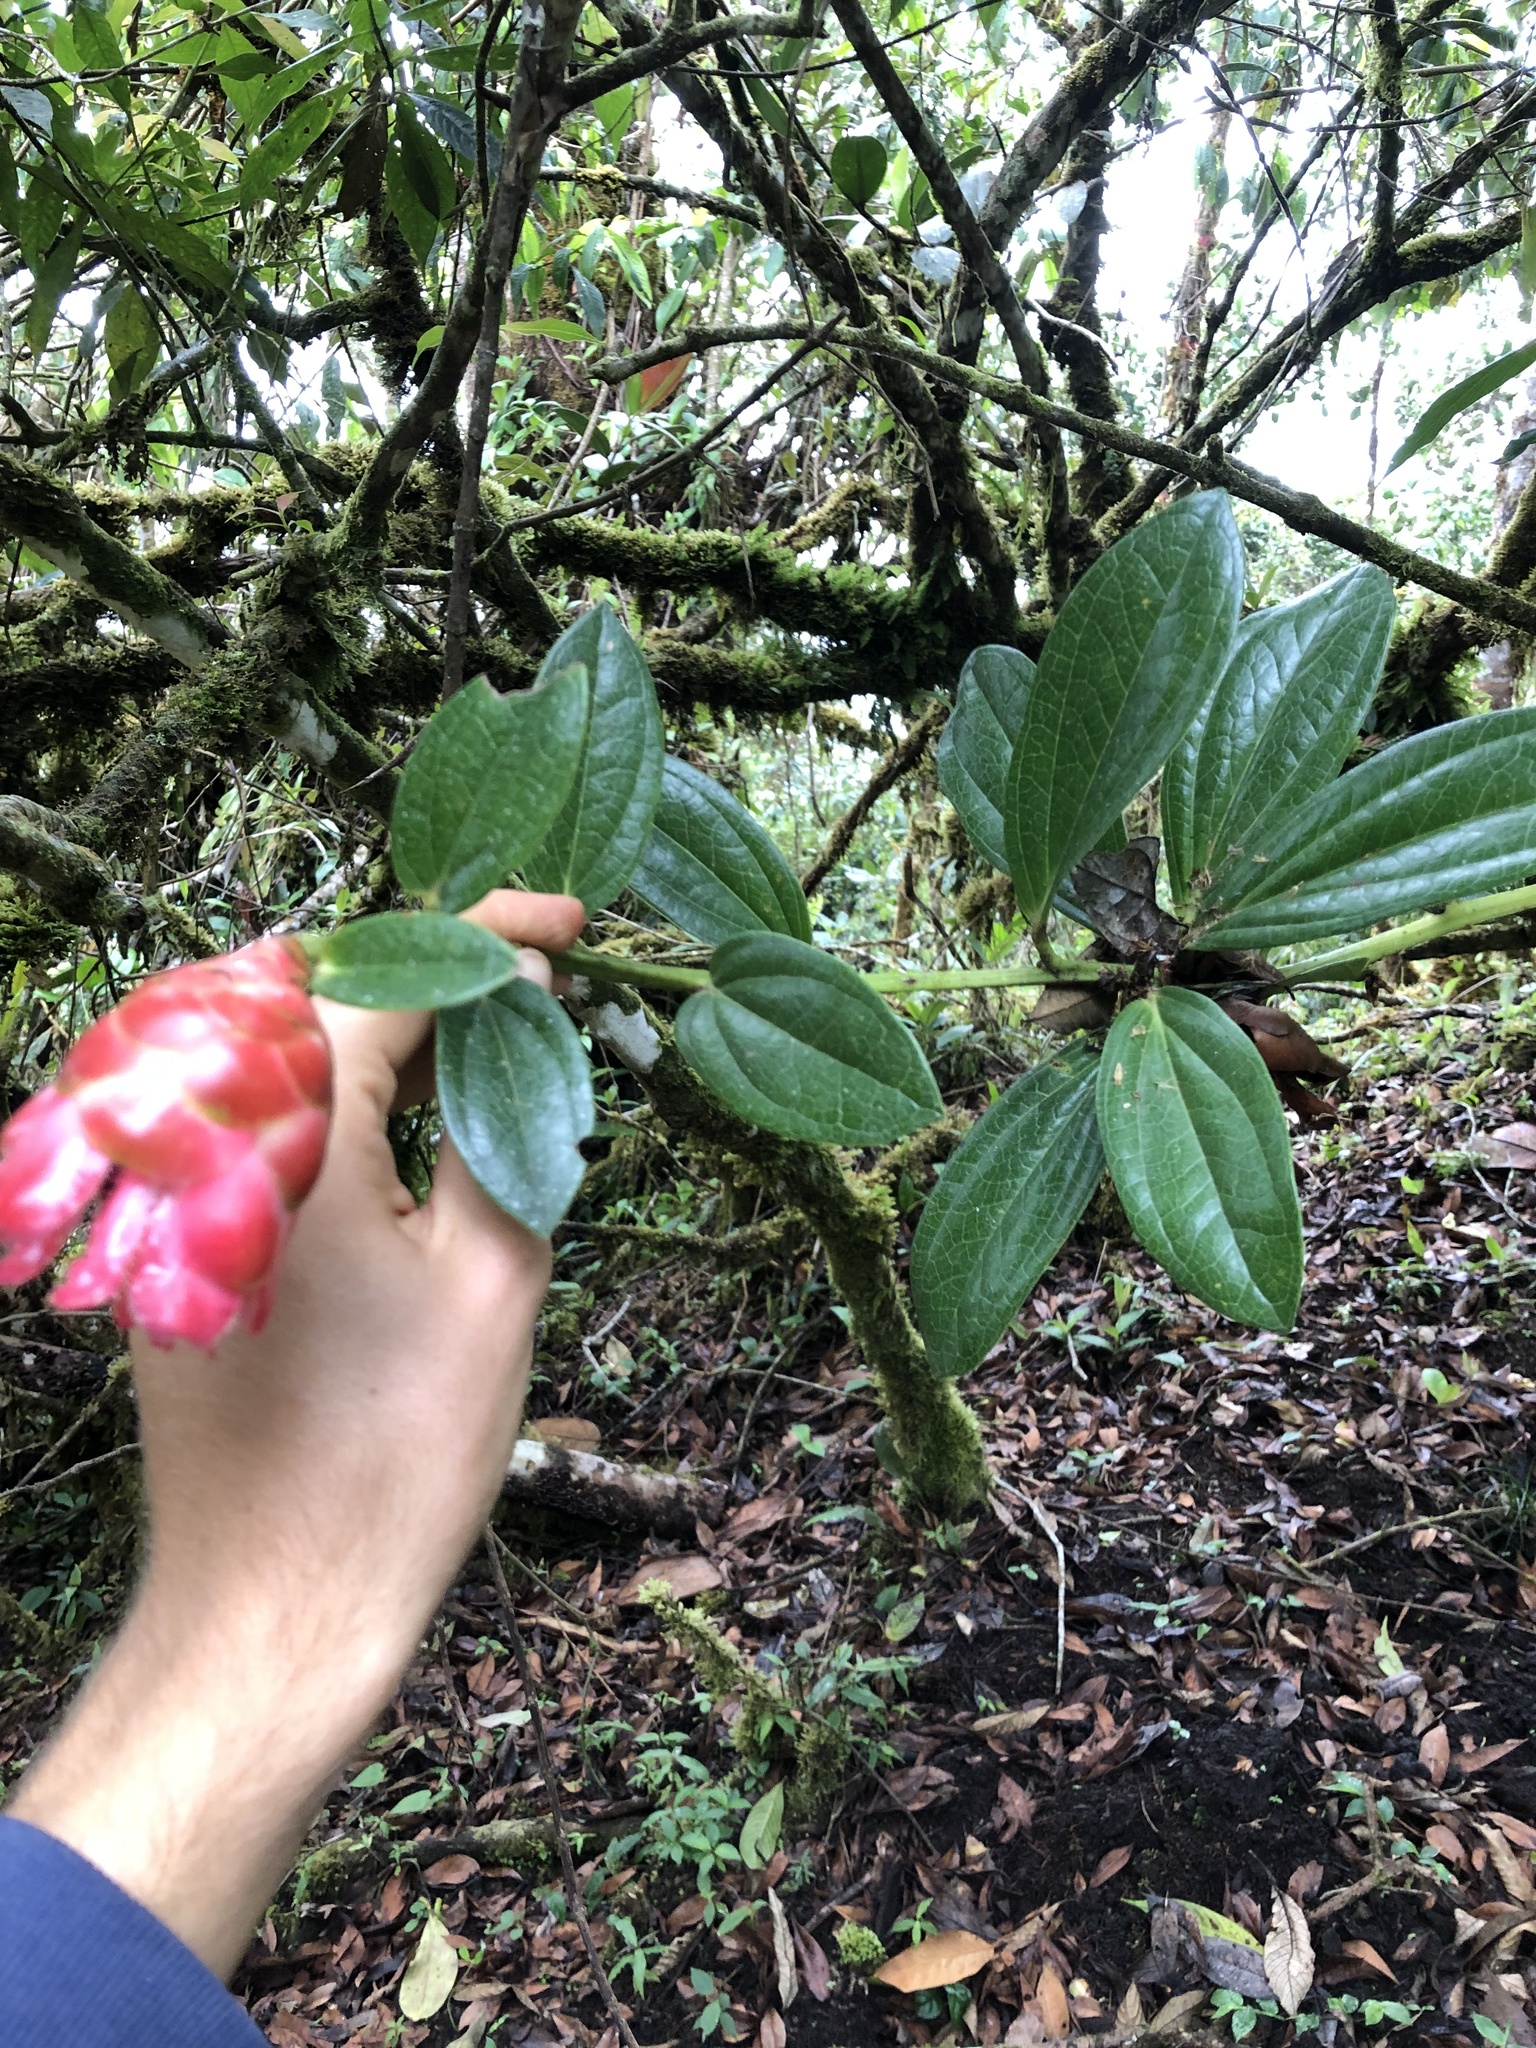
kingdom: Plantae
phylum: Tracheophyta
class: Magnoliopsida
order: Ericales
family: Ericaceae
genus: Cavendishia
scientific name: Cavendishia adenophora
